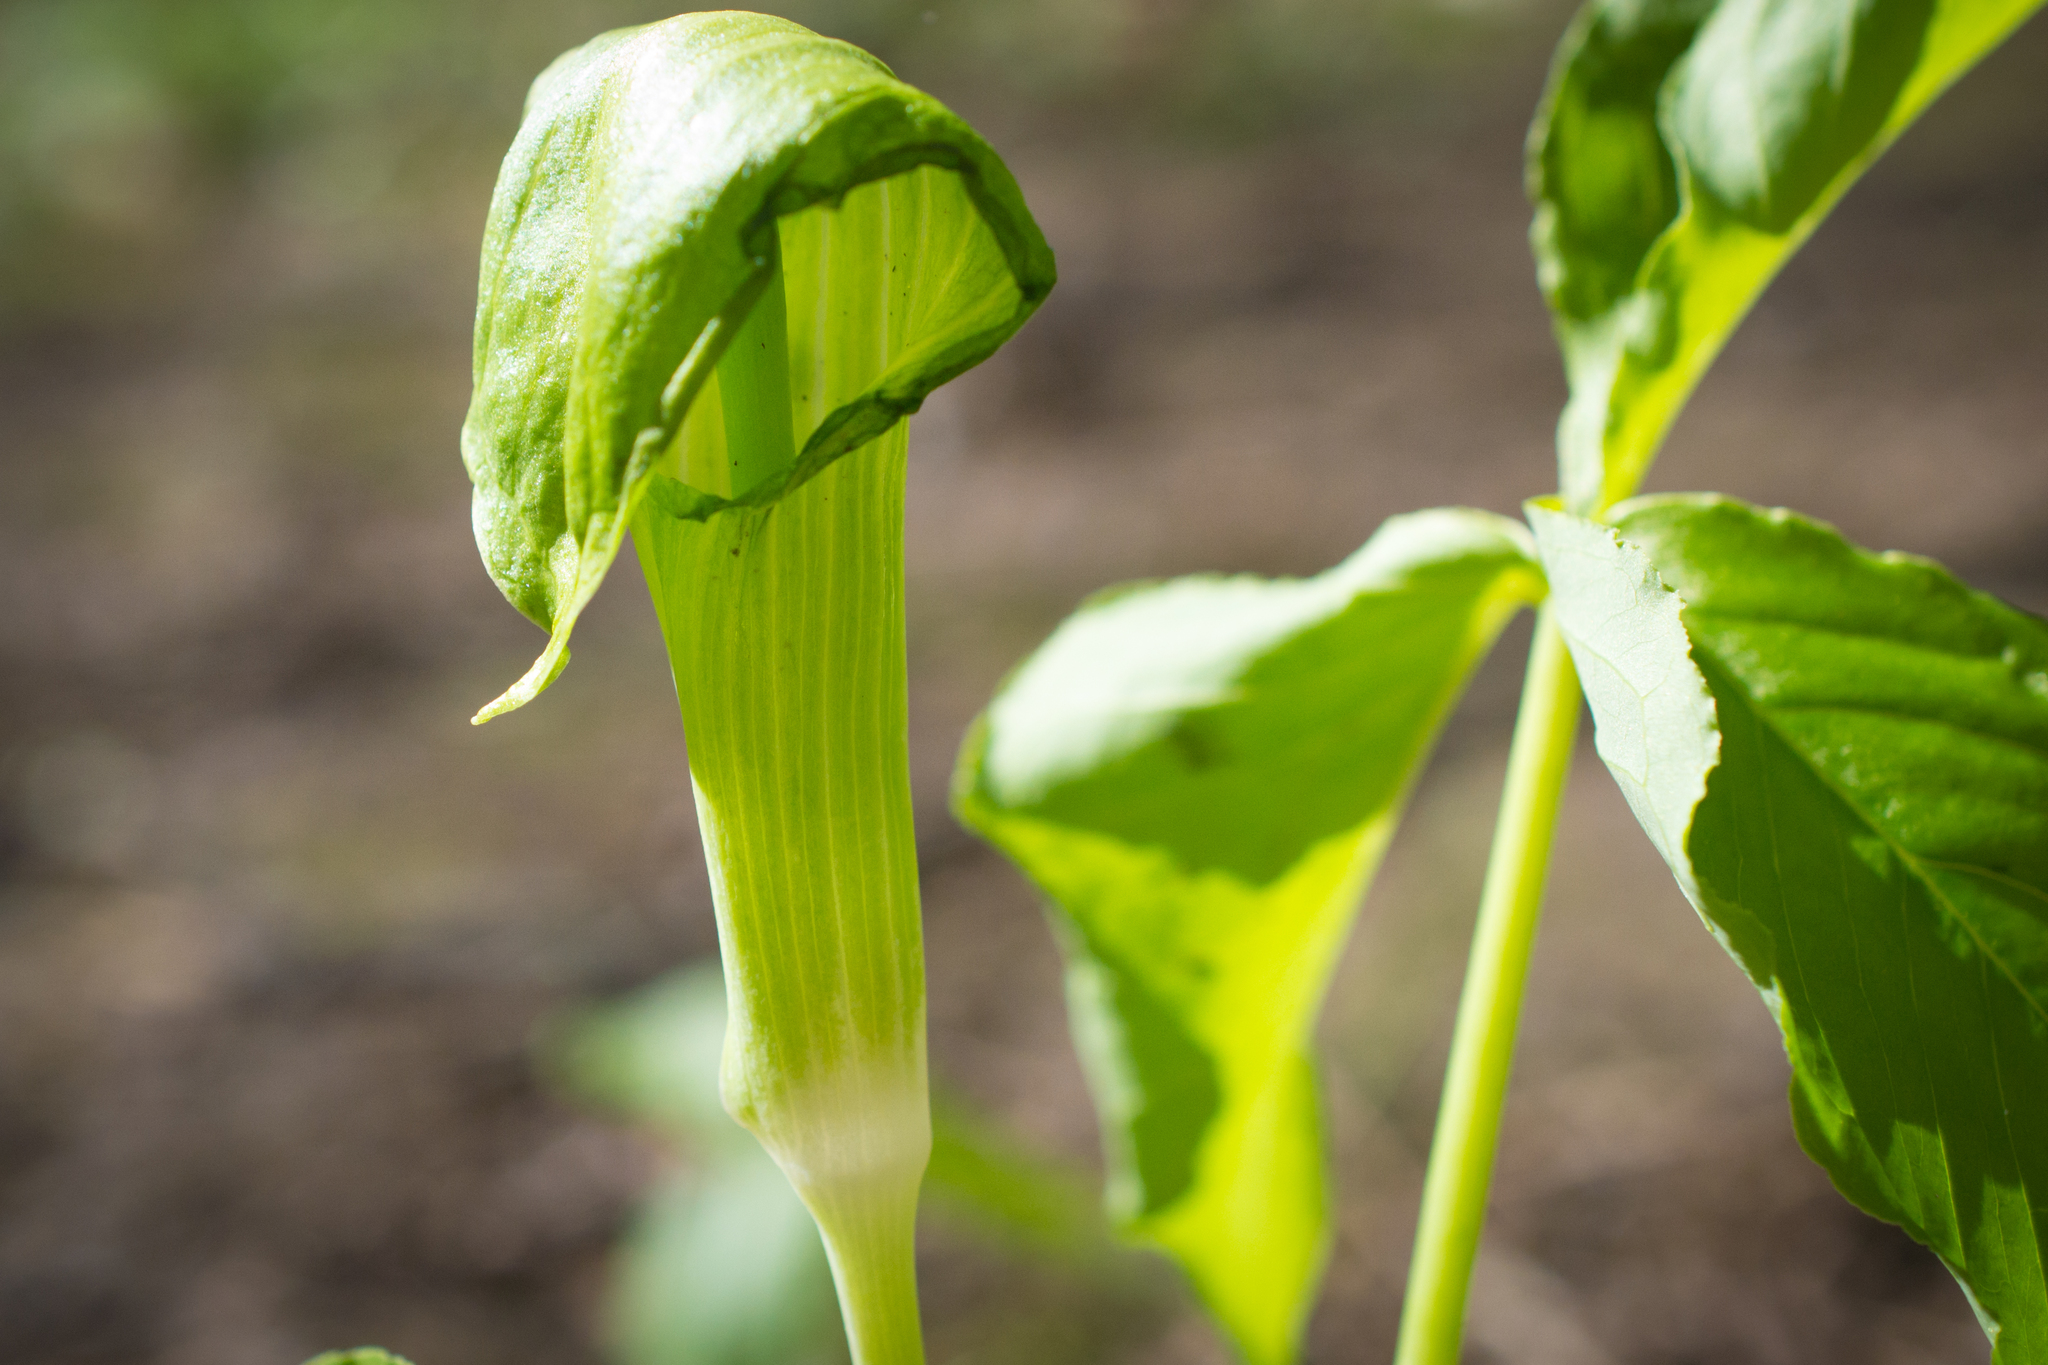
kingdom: Plantae
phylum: Tracheophyta
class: Liliopsida
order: Alismatales
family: Araceae
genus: Arisaema
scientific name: Arisaema triphyllum
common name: Jack-in-the-pulpit
